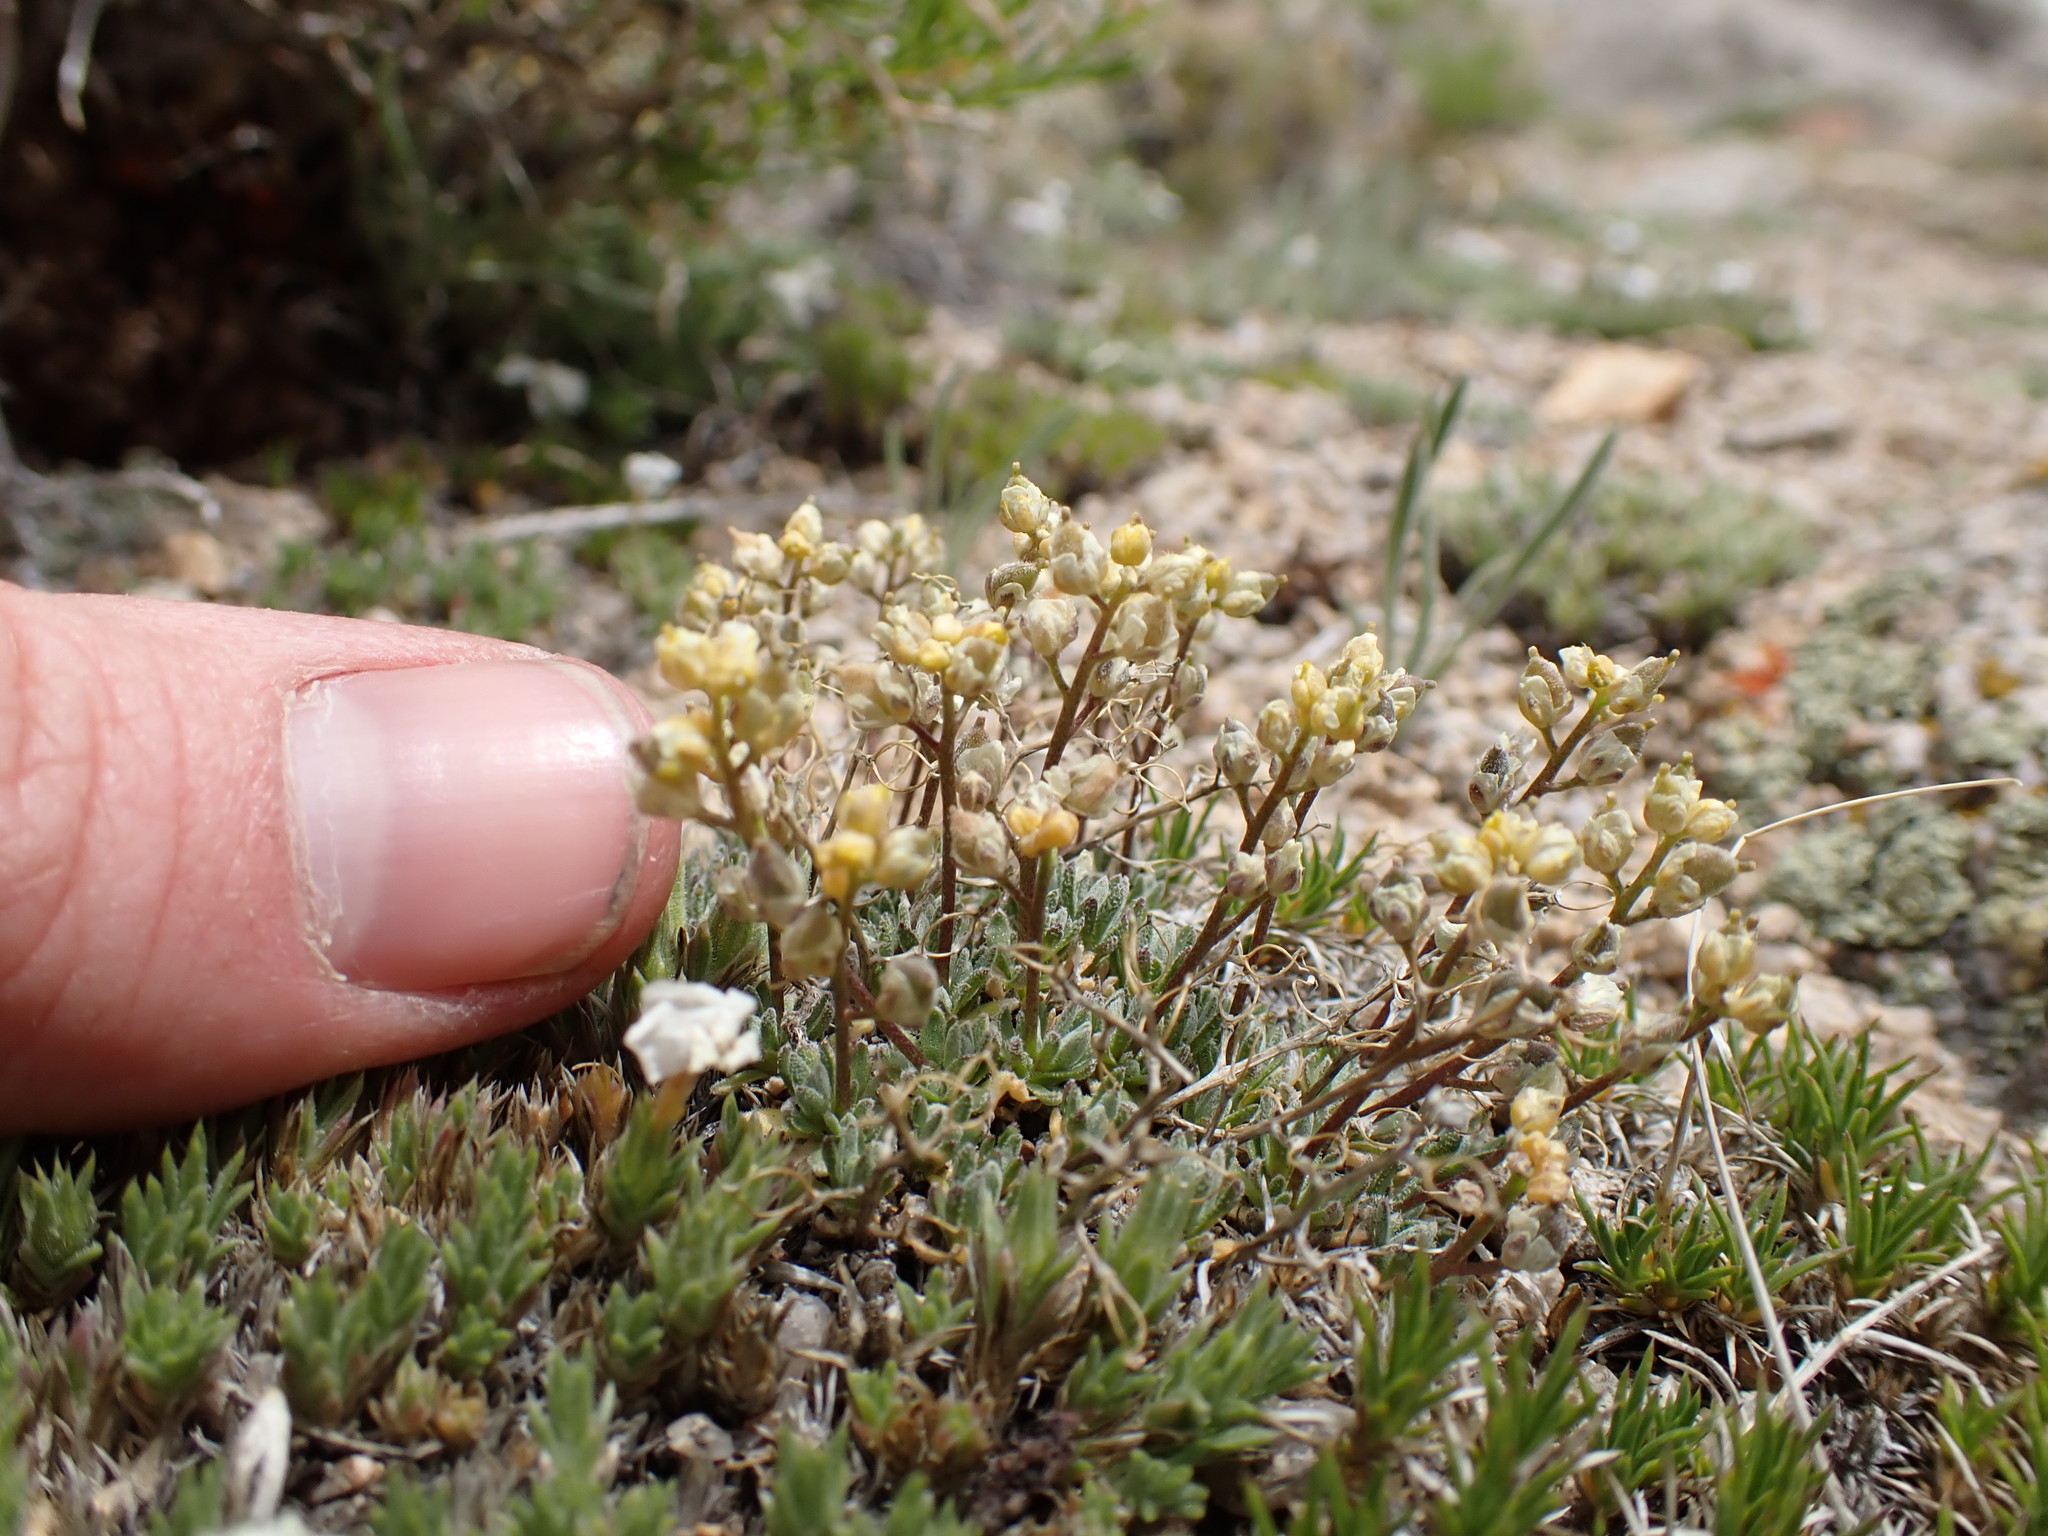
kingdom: Plantae
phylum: Tracheophyta
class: Magnoliopsida
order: Brassicales
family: Brassicaceae
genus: Draba
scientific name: Draba oligosperma
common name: Few-seed draba
